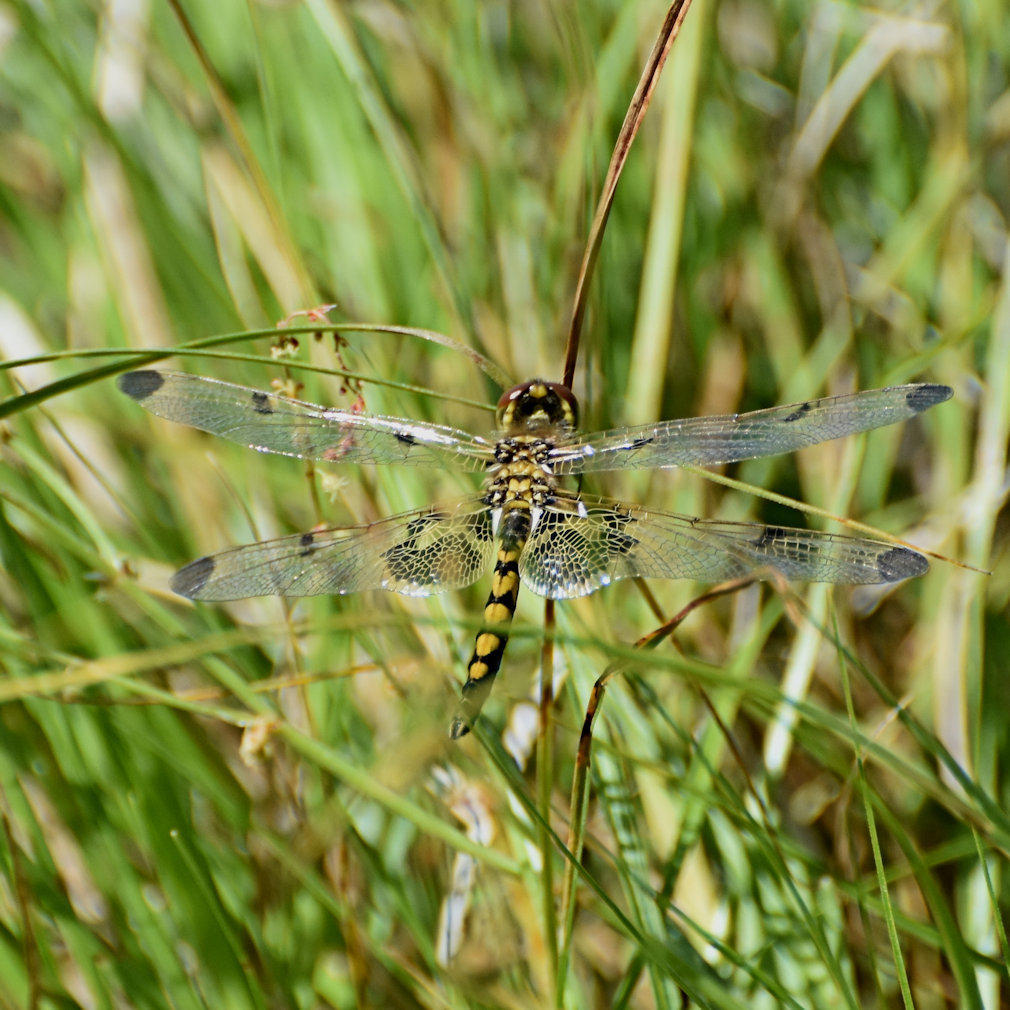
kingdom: Animalia
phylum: Arthropoda
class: Insecta
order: Odonata
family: Libellulidae
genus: Celithemis
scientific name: Celithemis elisa
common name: Calico pennant
